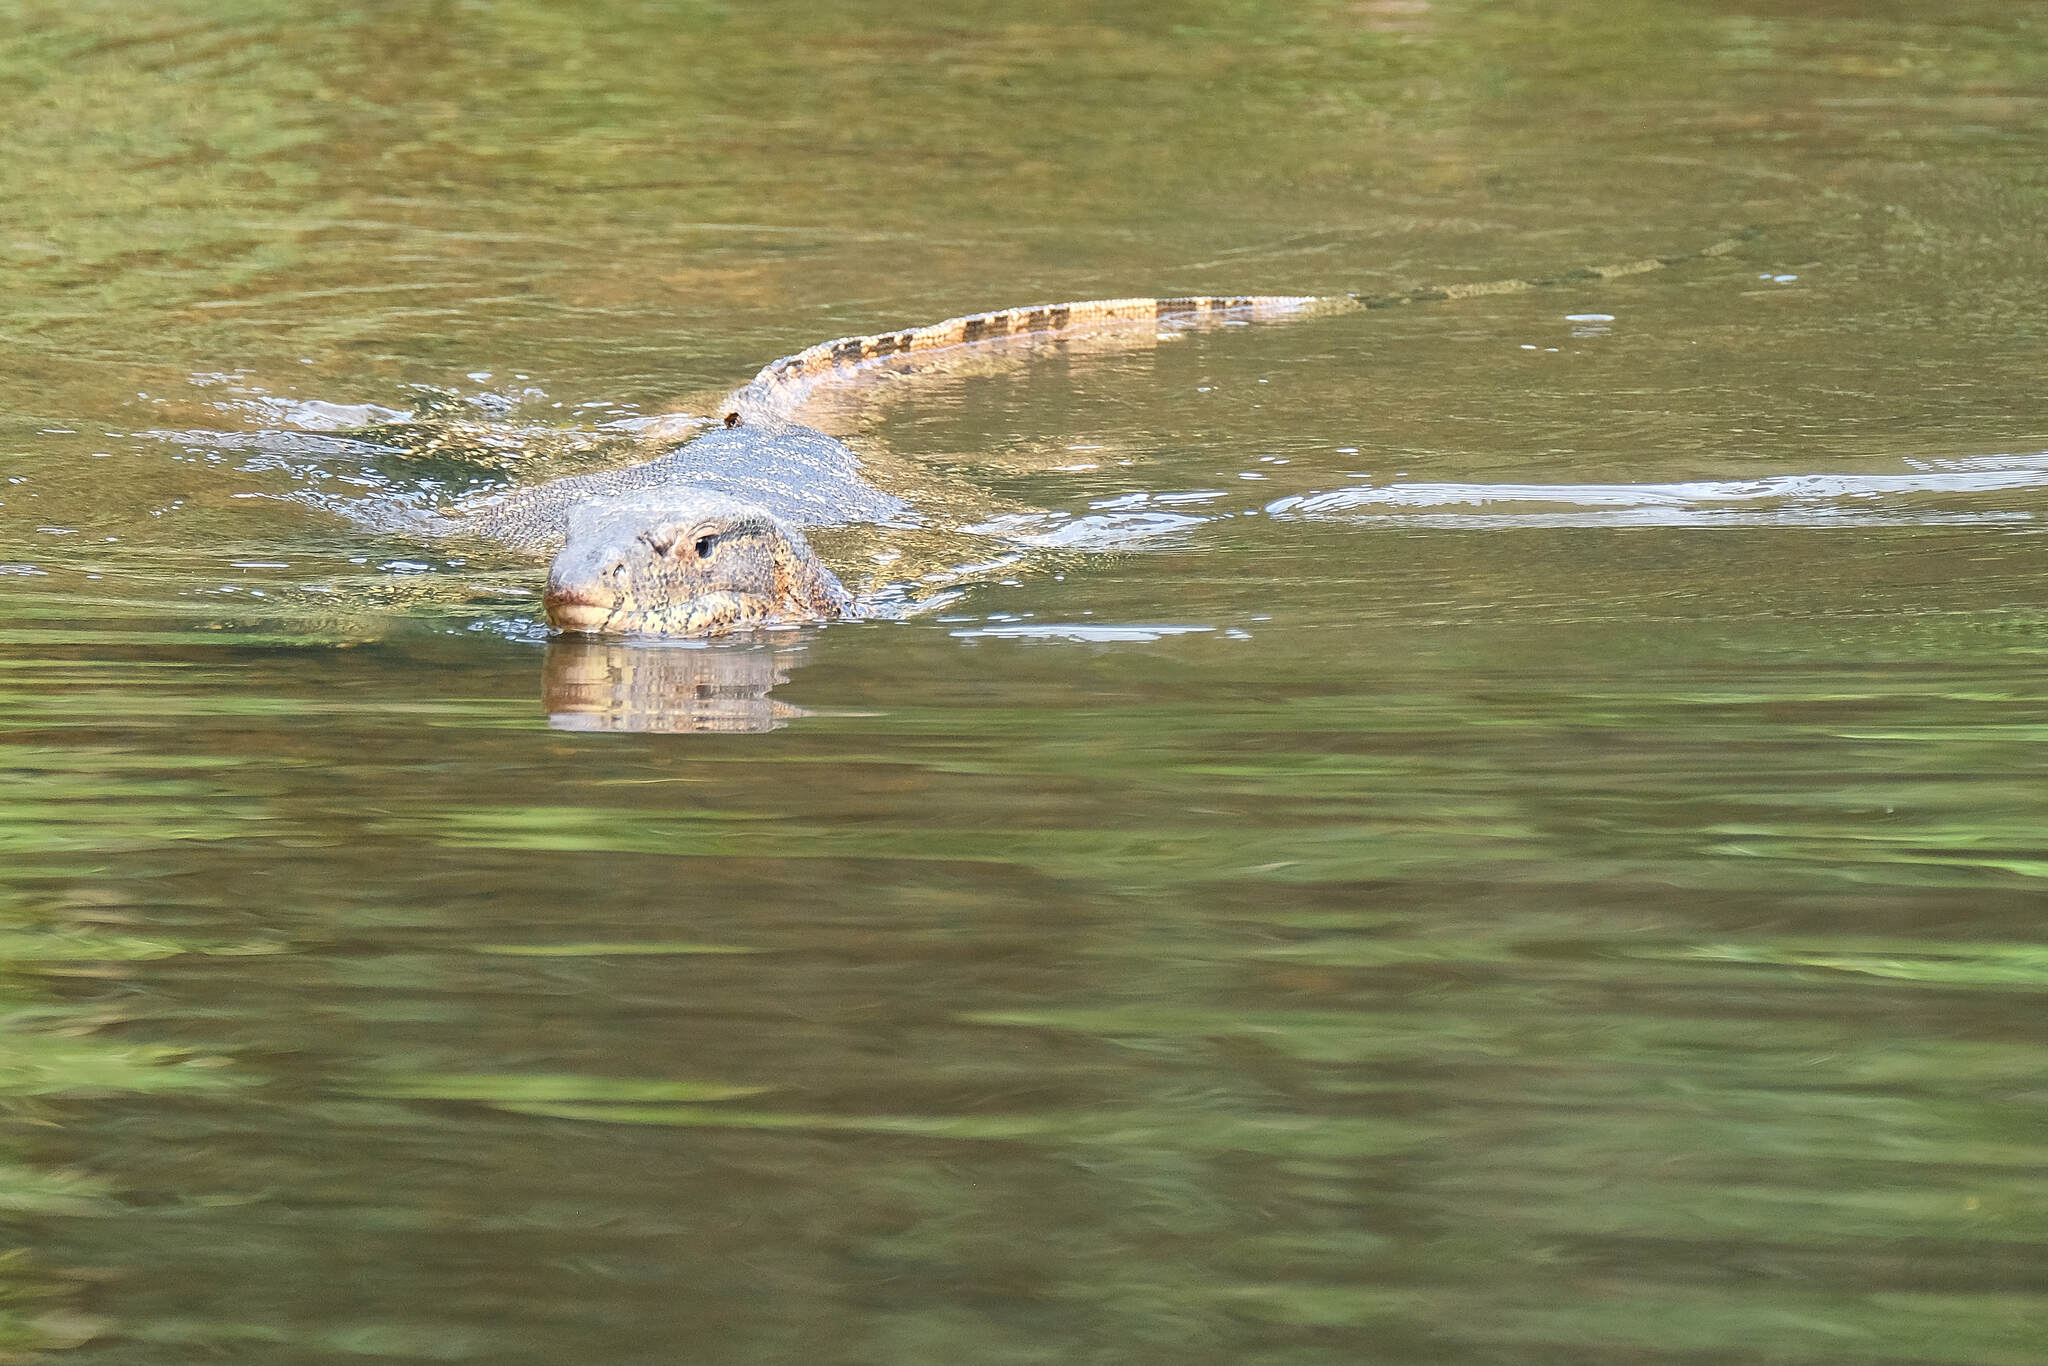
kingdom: Animalia
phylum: Chordata
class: Squamata
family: Varanidae
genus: Varanus
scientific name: Varanus salvator
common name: Common water monitor
